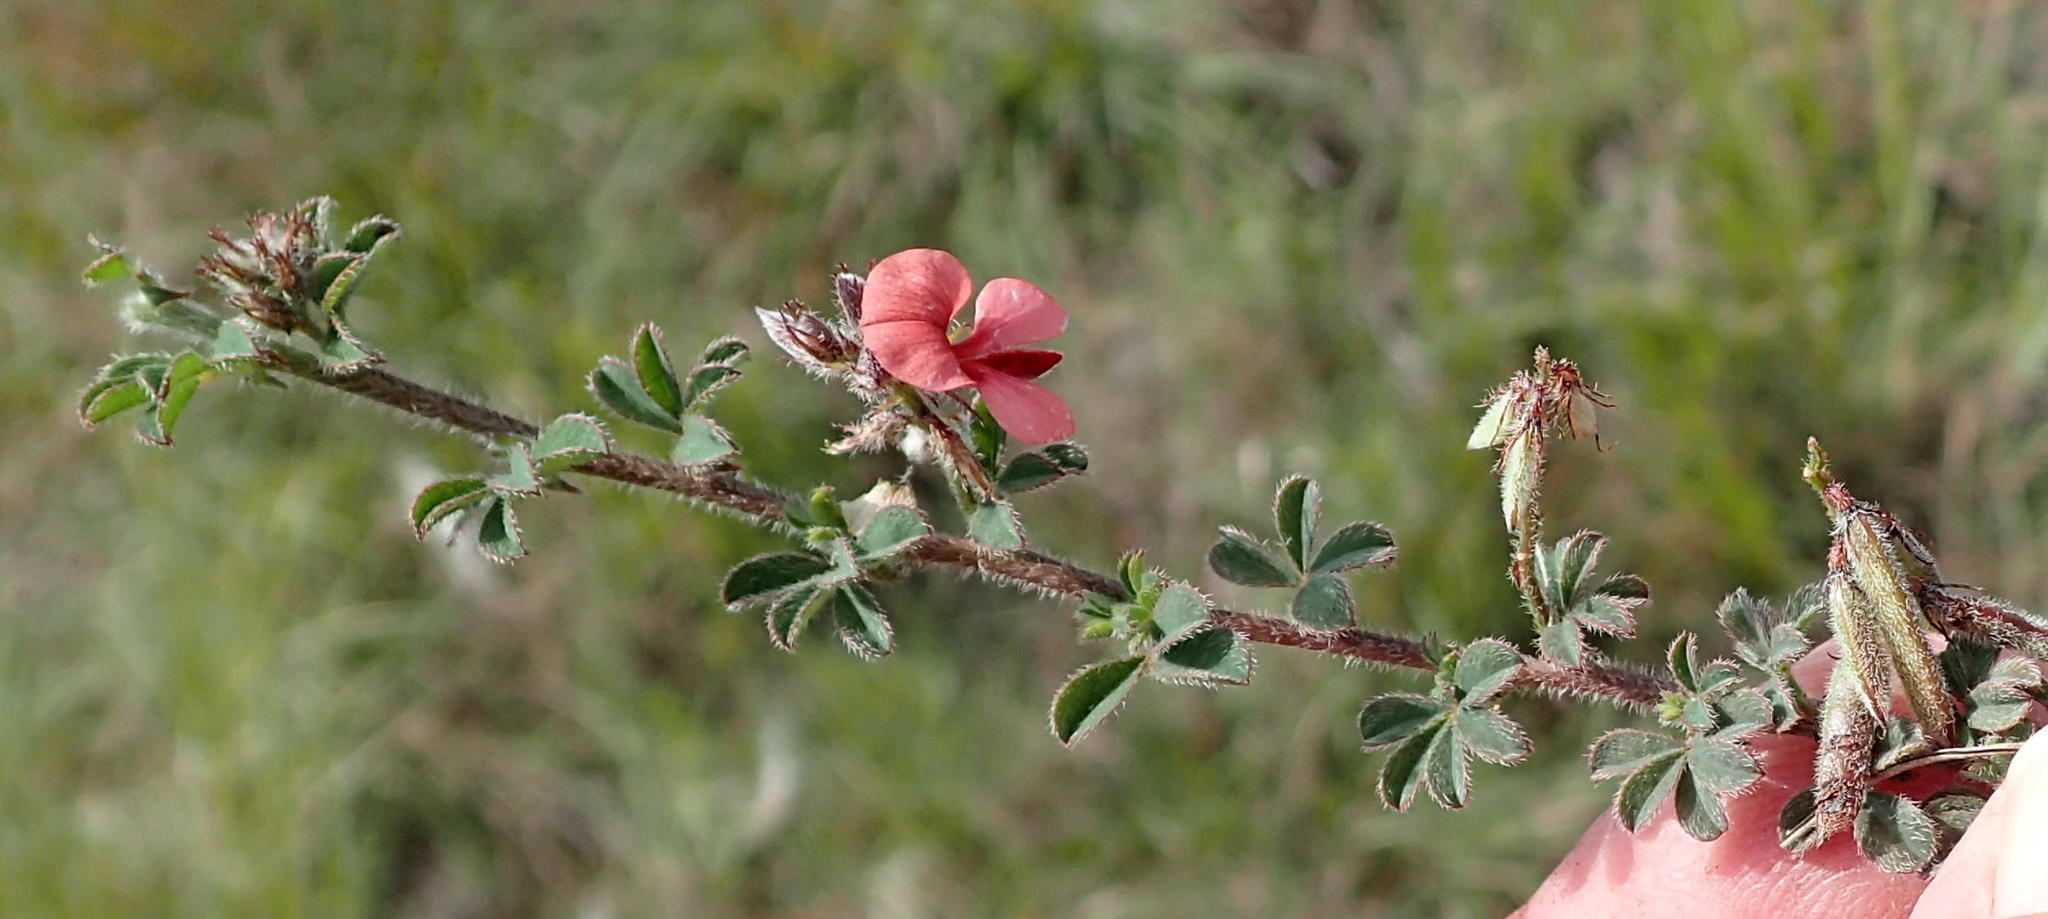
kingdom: Plantae
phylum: Tracheophyta
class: Magnoliopsida
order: Fabales
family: Fabaceae
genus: Indigofera
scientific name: Indigofera priorii
